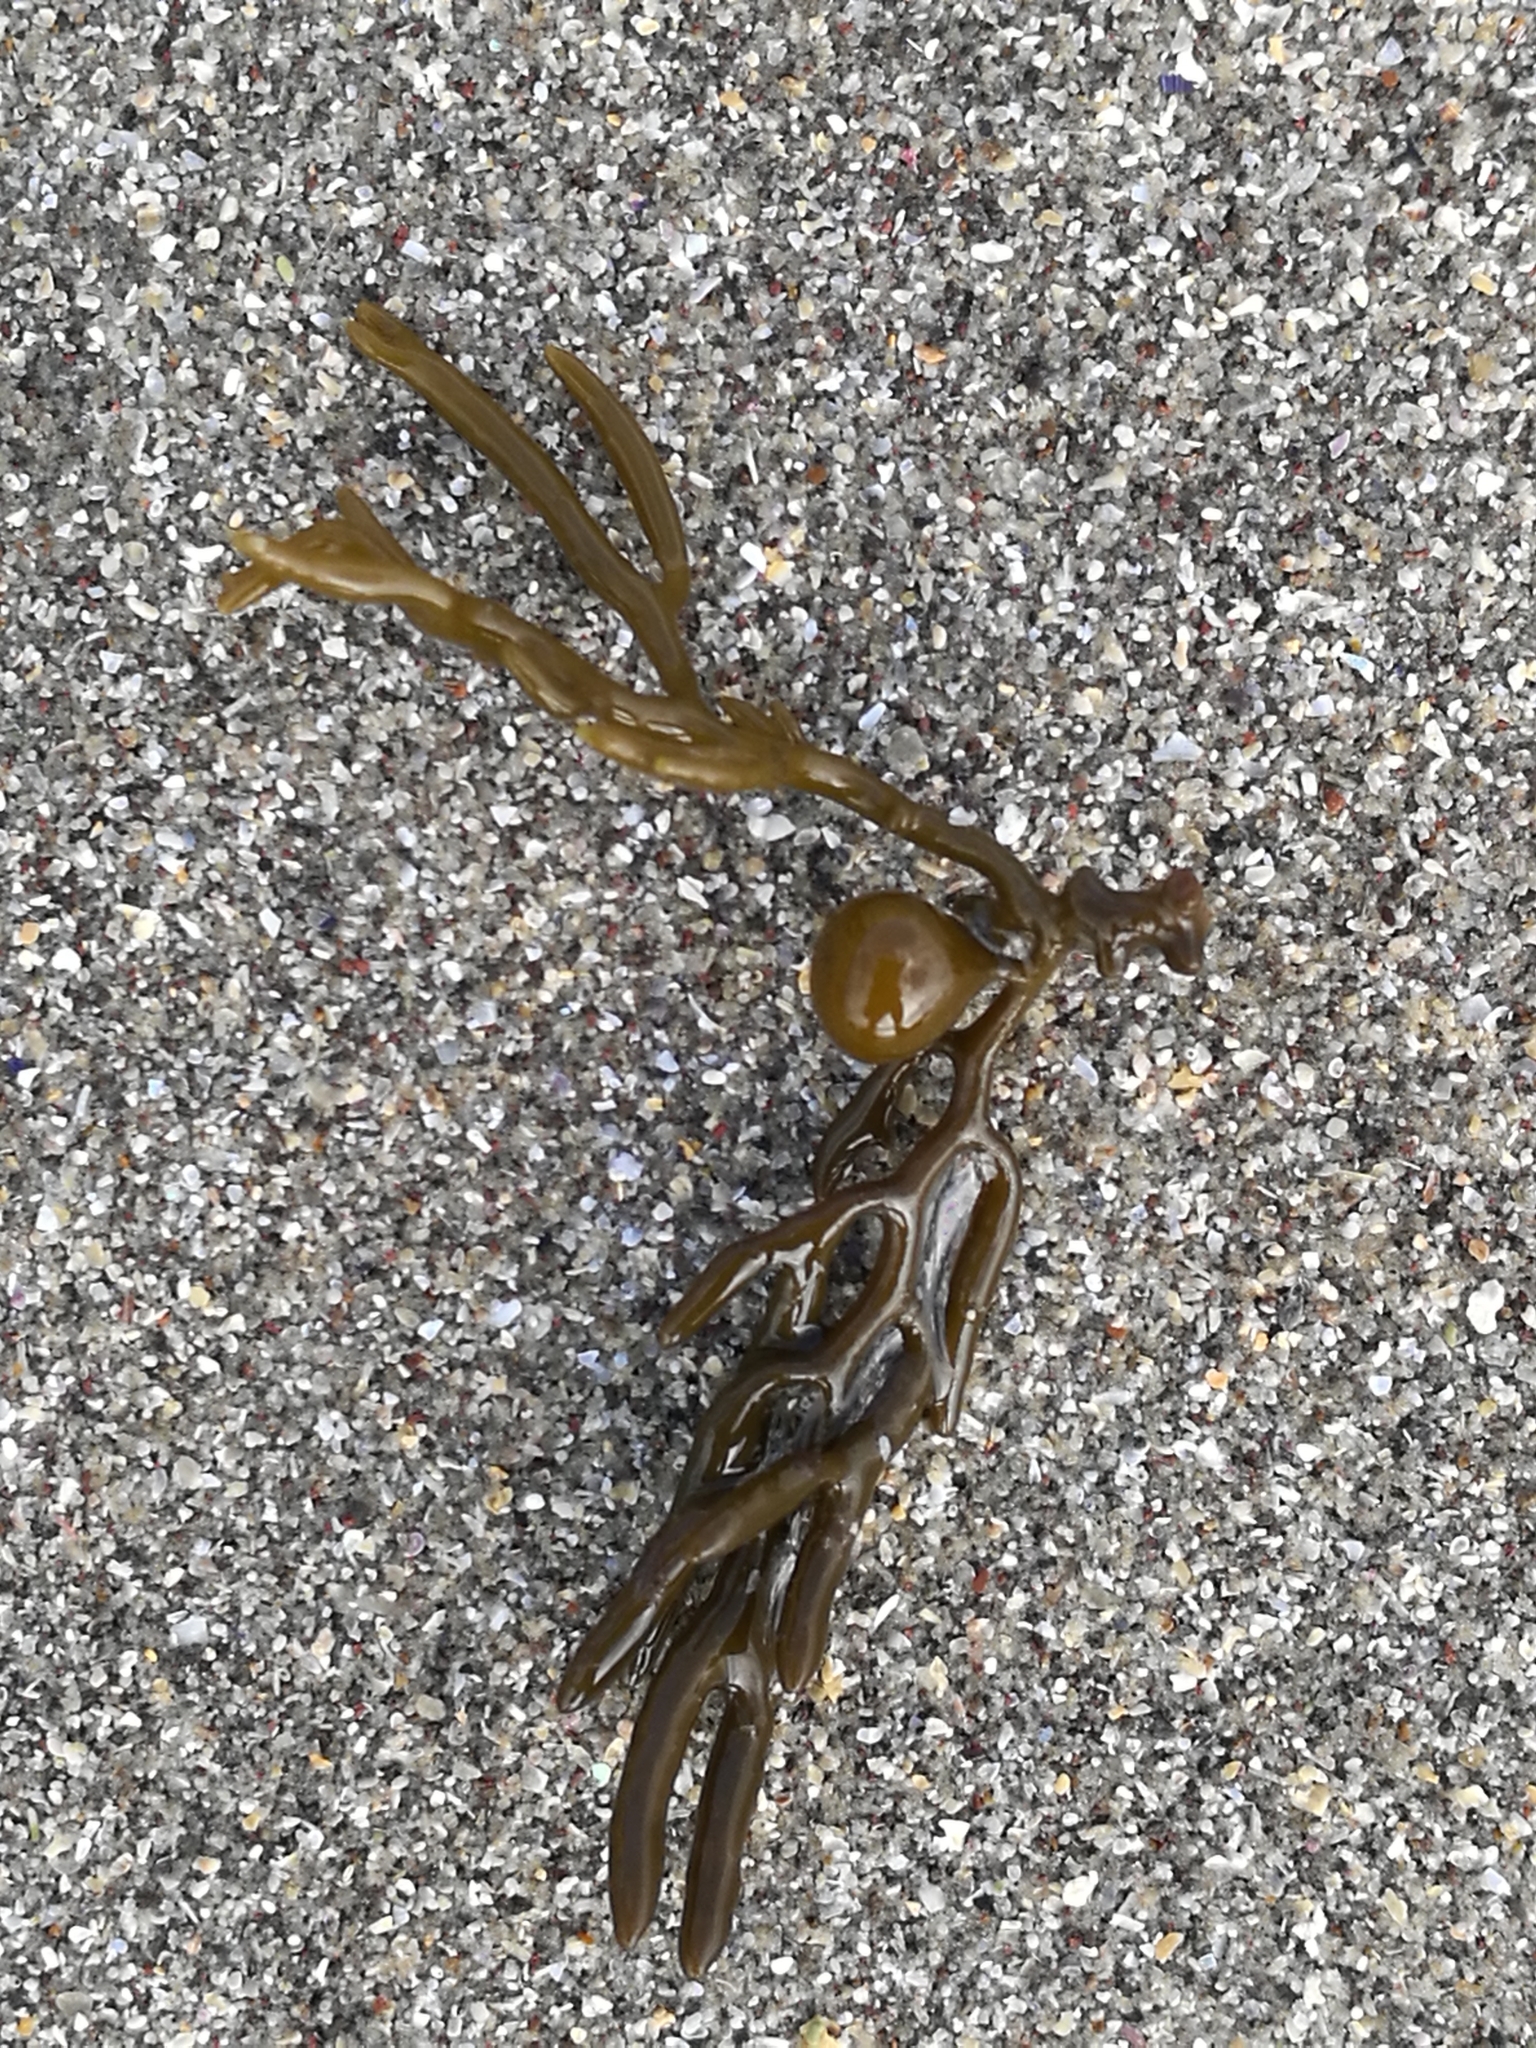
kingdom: Chromista
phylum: Ochrophyta
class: Phaeophyceae
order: Fucales
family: Sargassaceae
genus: Cystophora
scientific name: Cystophora scalaris
